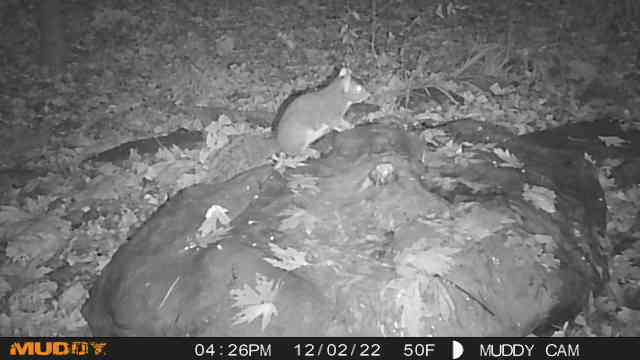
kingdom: Animalia
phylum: Chordata
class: Mammalia
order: Rodentia
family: Sciuridae
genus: Sciurus
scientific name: Sciurus carolinensis
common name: Eastern gray squirrel
